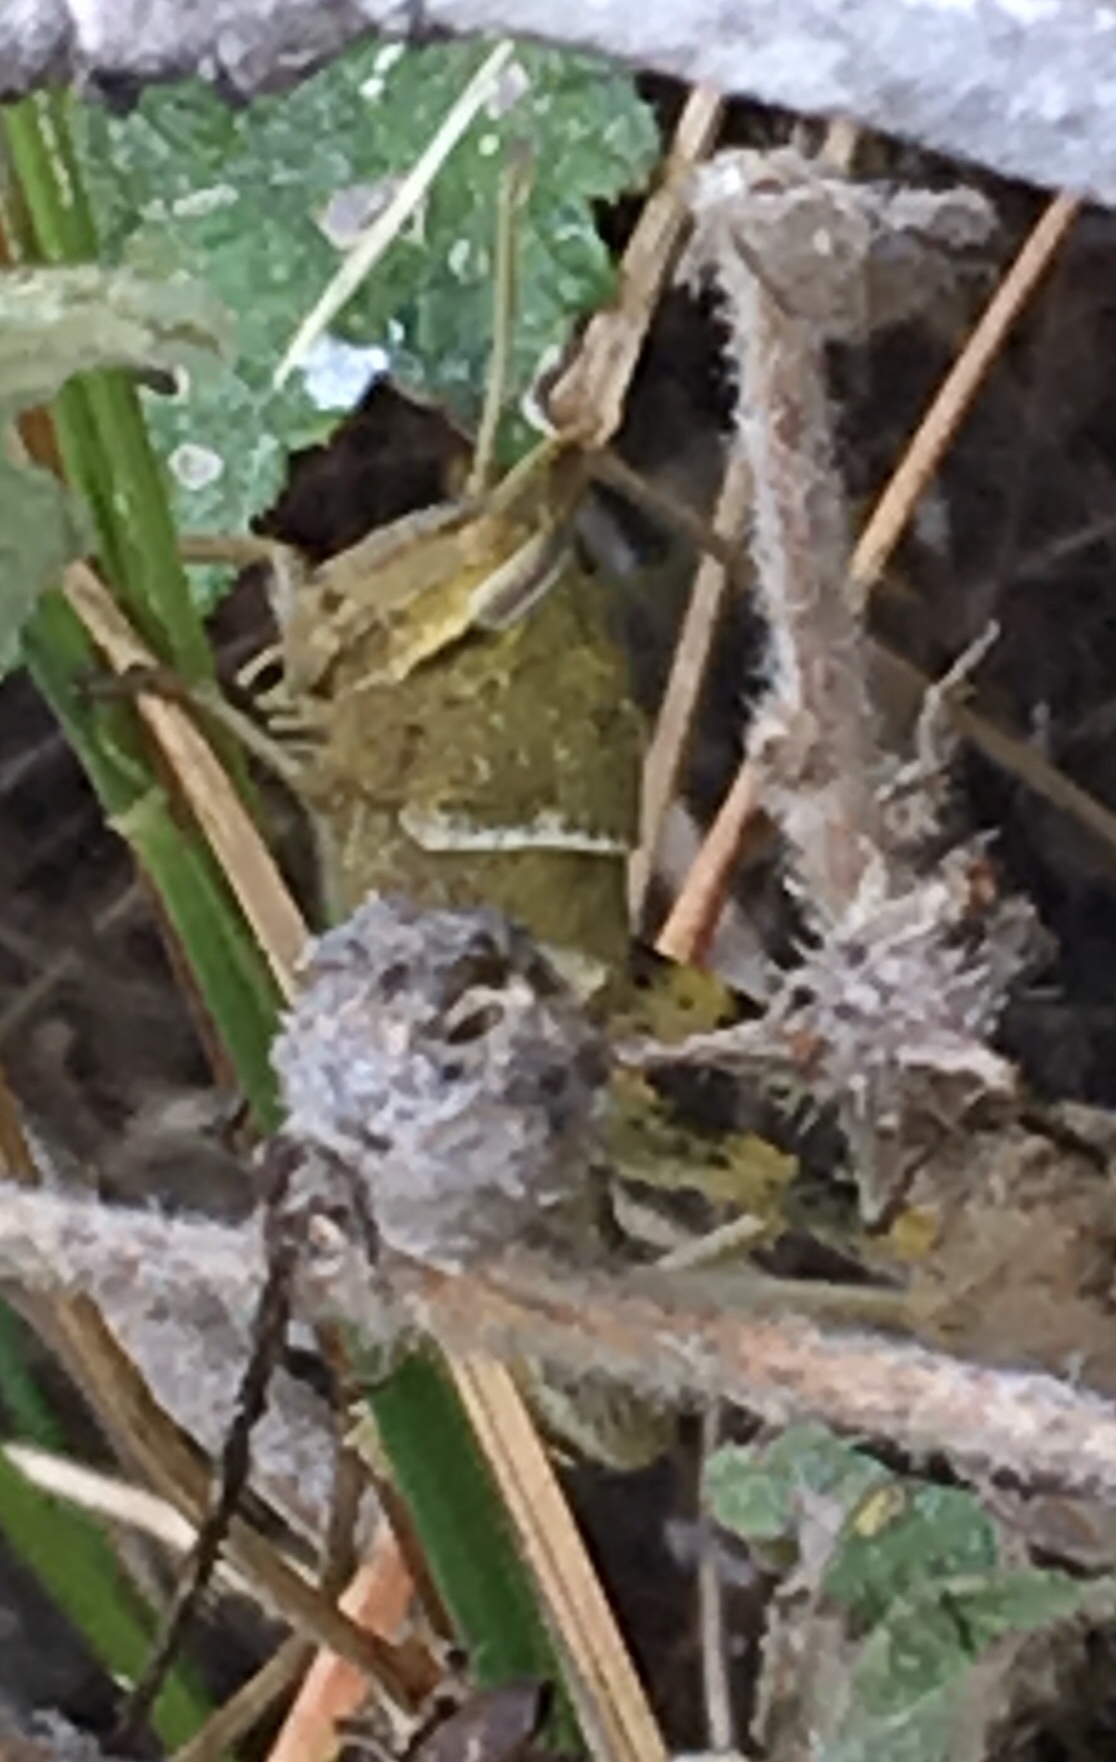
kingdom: Animalia
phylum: Arthropoda
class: Insecta
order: Orthoptera
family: Acrididae
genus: Schistocerca
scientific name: Schistocerca nitens
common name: Vagrant grasshopper
